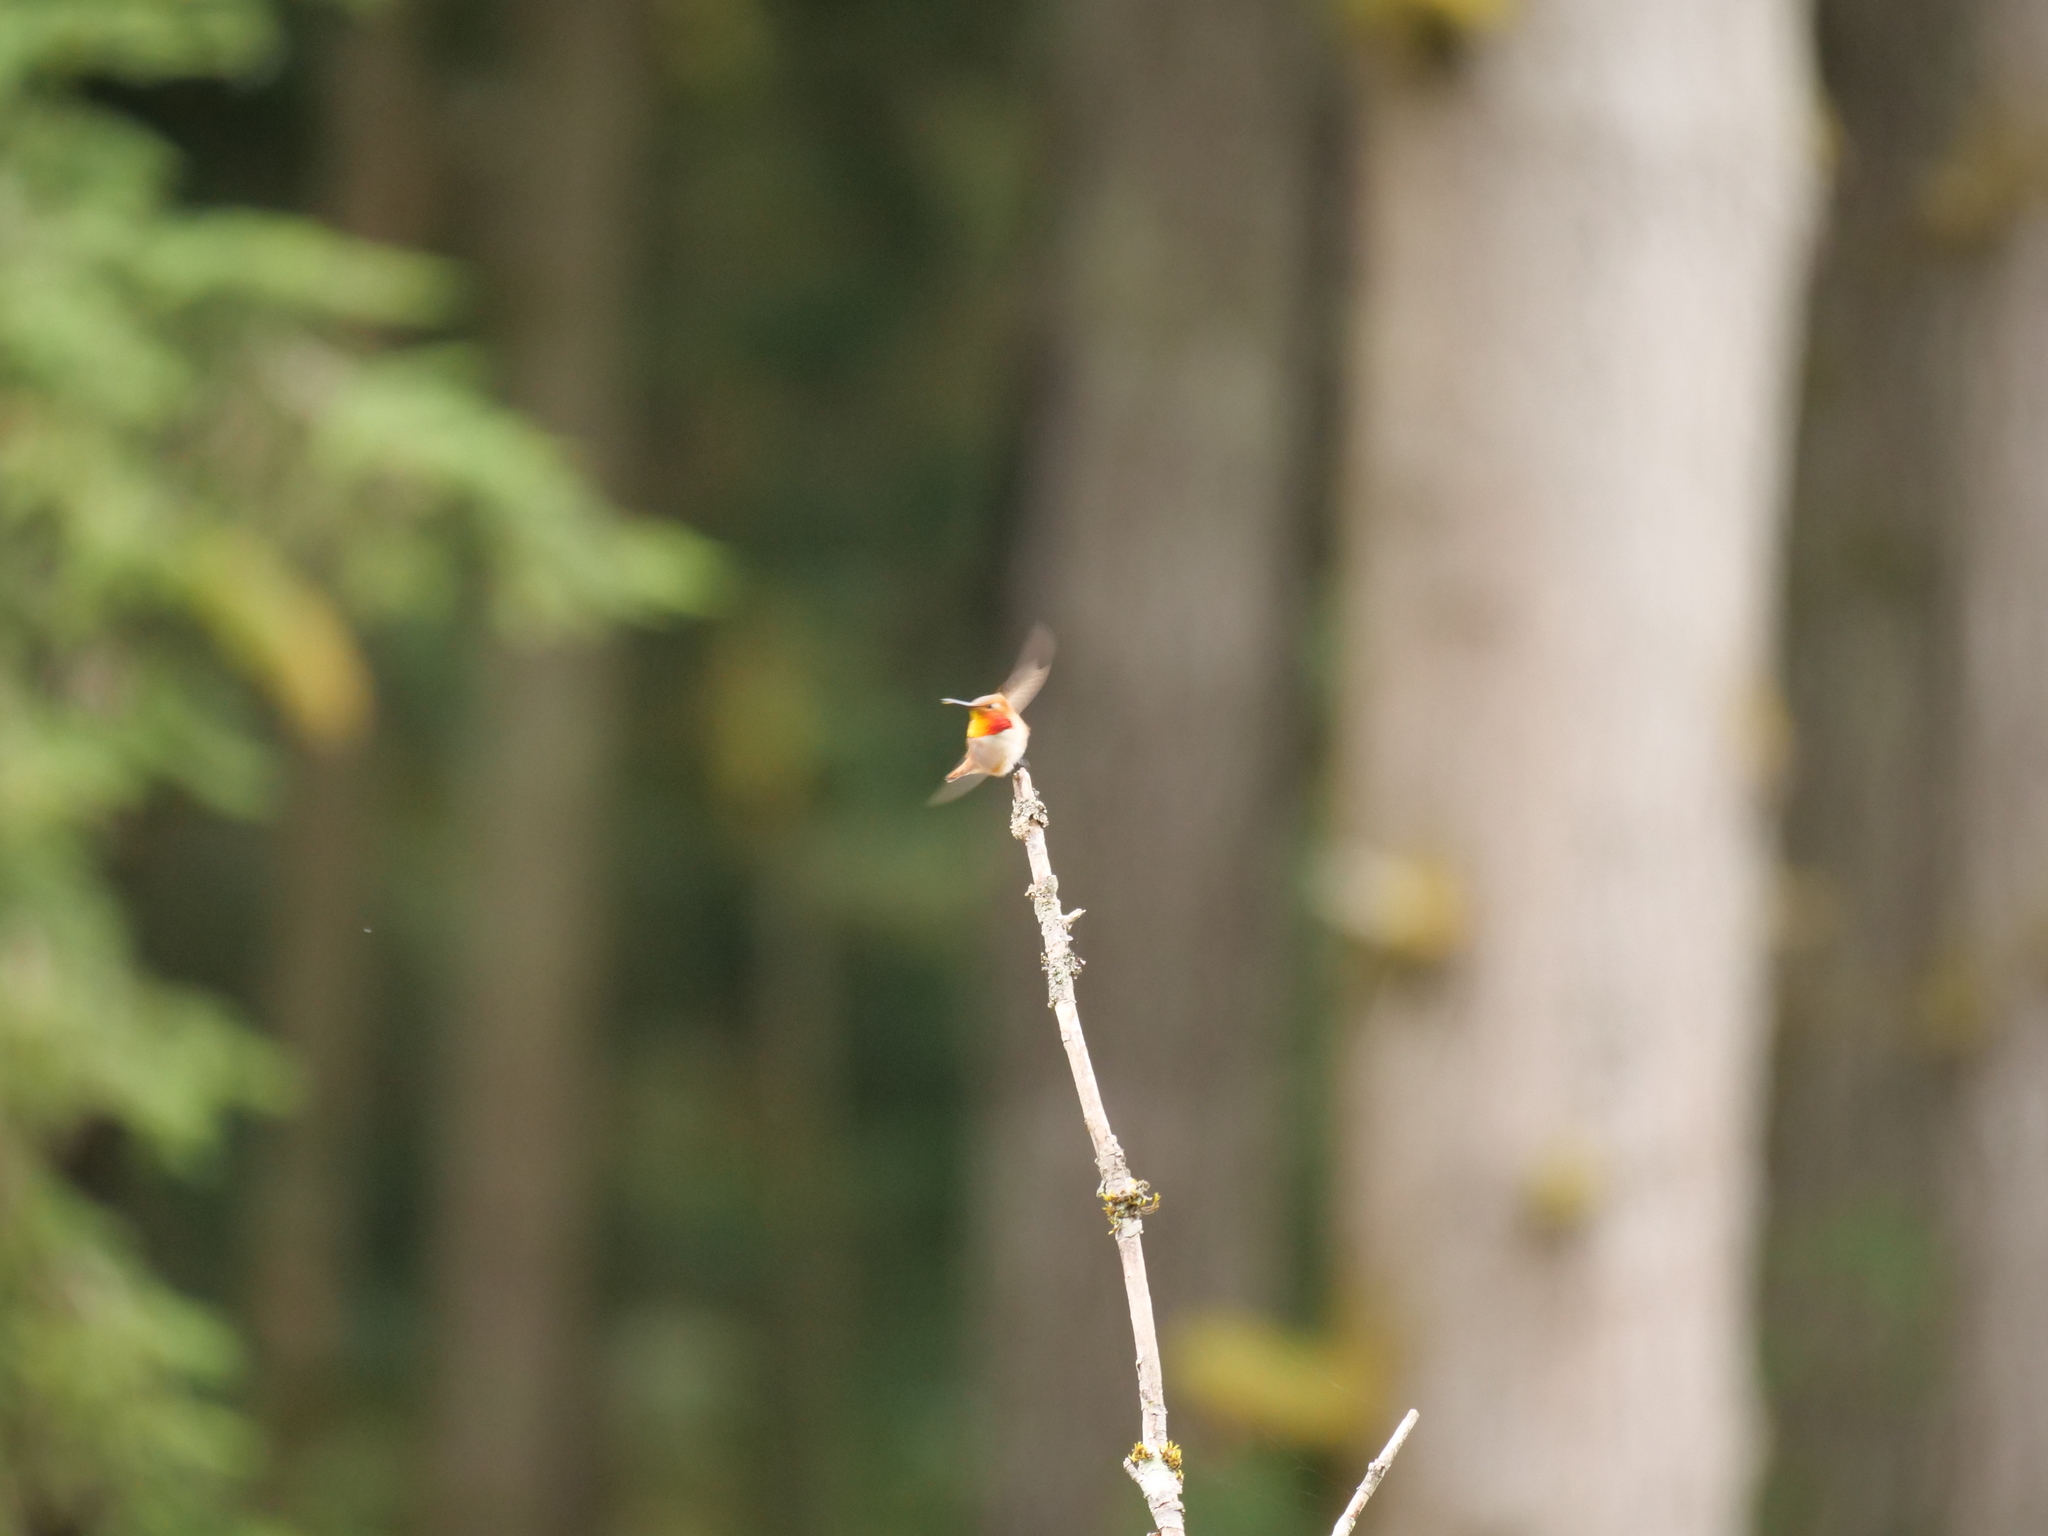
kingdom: Animalia
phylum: Chordata
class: Aves
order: Apodiformes
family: Trochilidae
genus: Selasphorus
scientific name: Selasphorus rufus
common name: Rufous hummingbird
